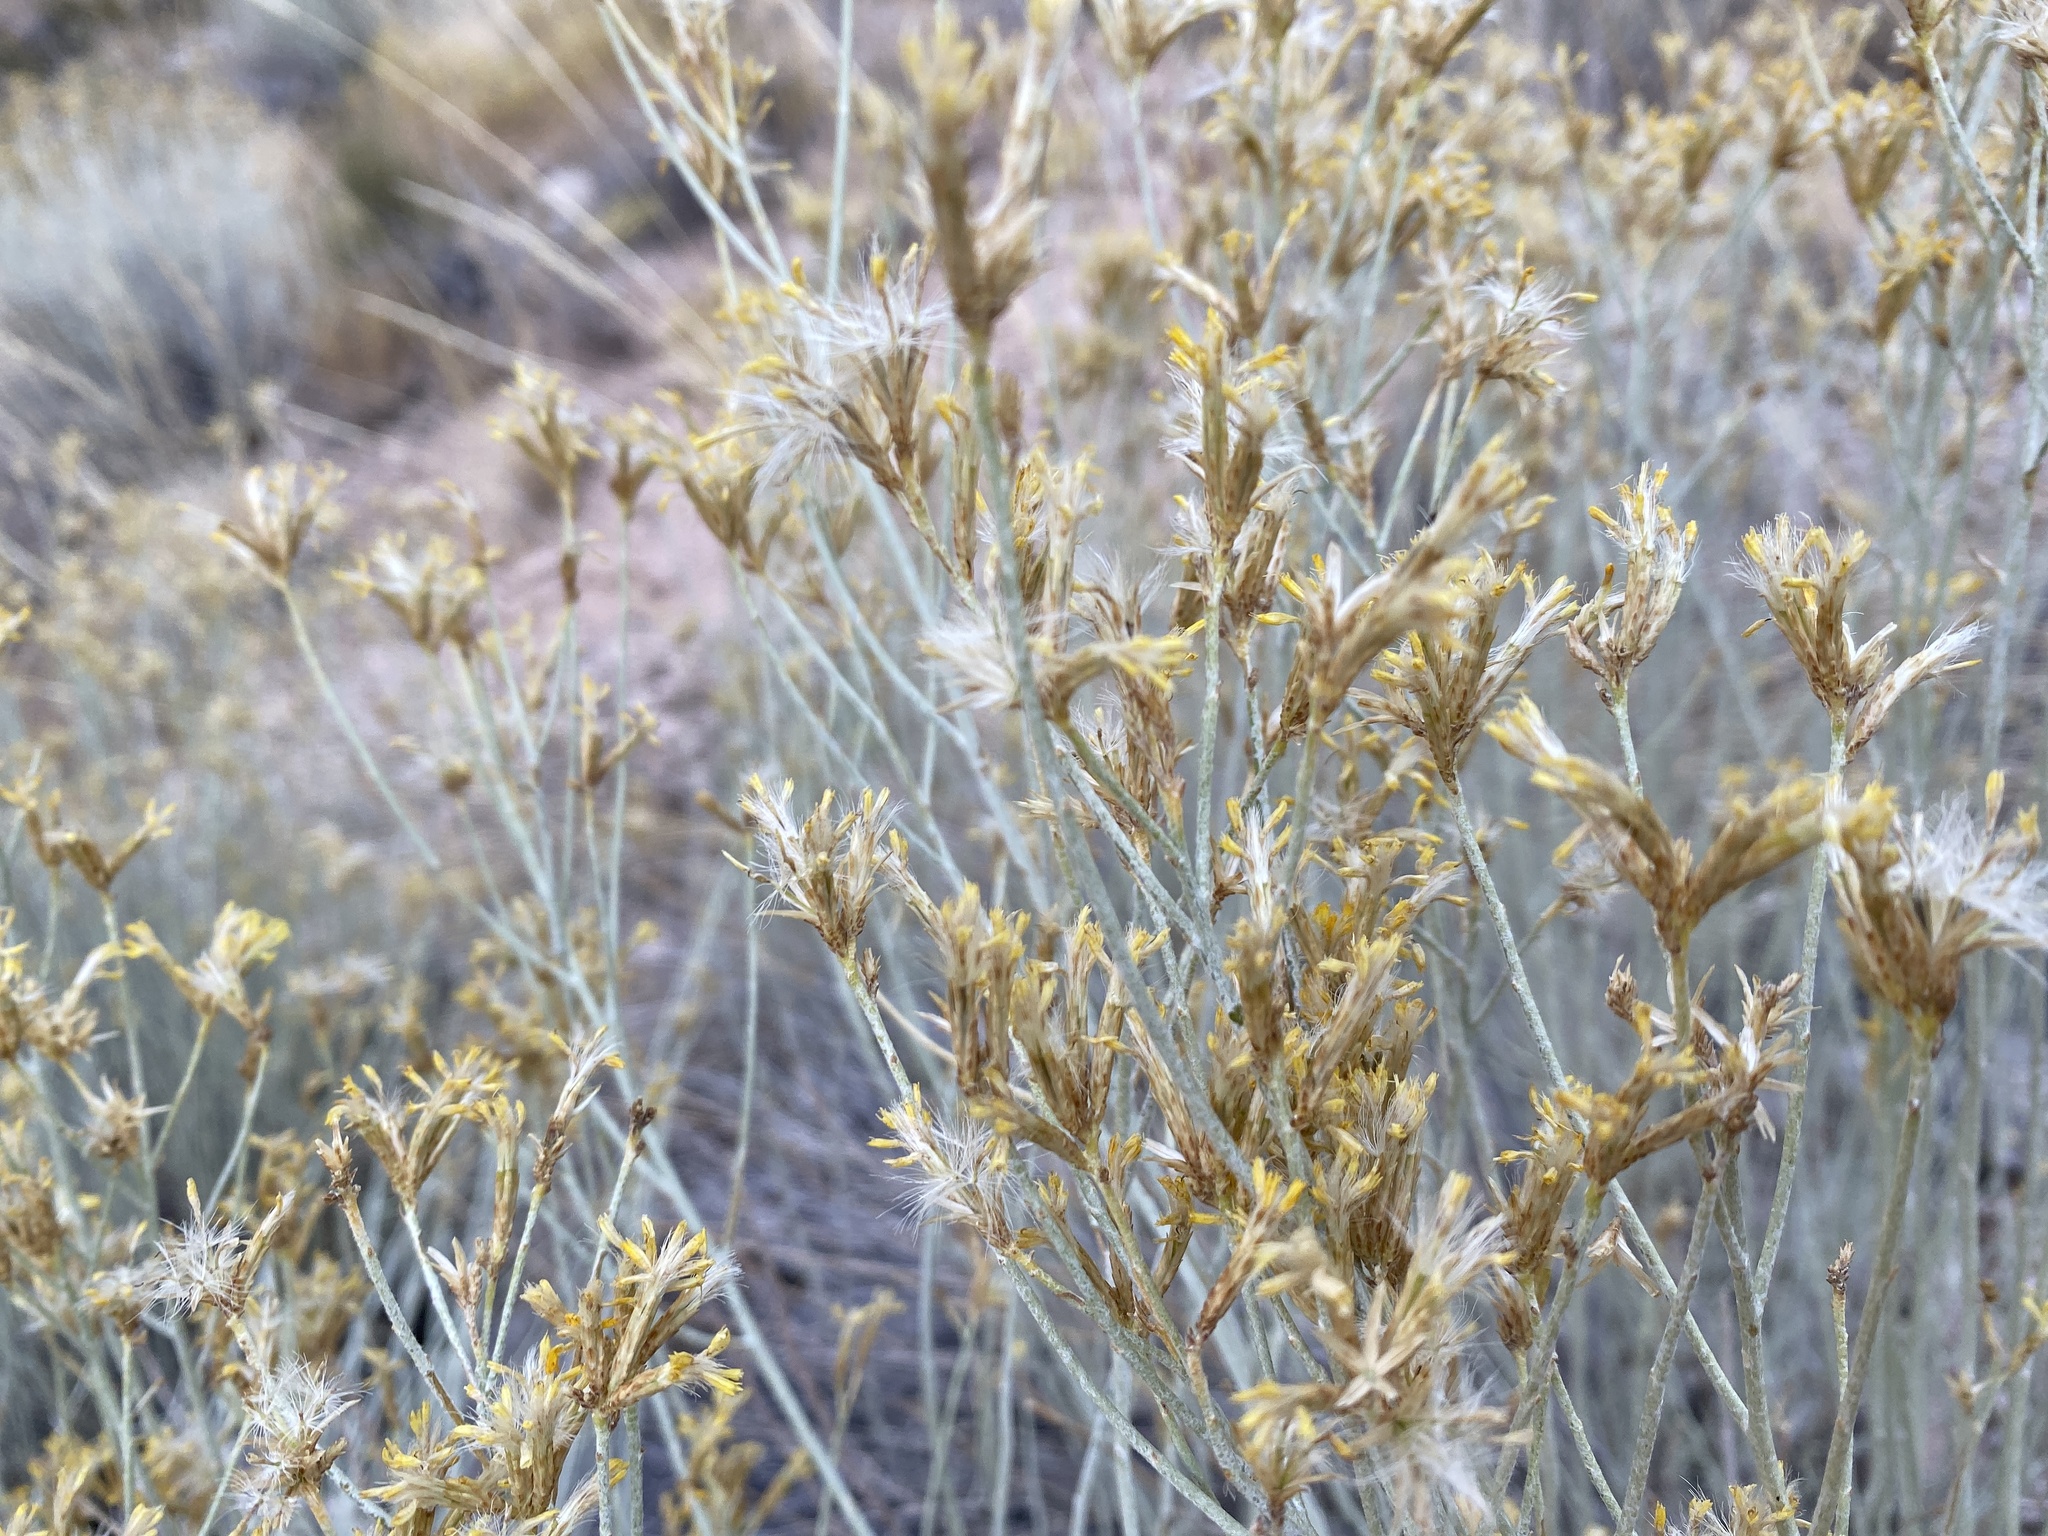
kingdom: Plantae
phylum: Tracheophyta
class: Magnoliopsida
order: Asterales
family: Asteraceae
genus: Ericameria
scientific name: Ericameria nauseosa
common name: Rubber rabbitbrush
